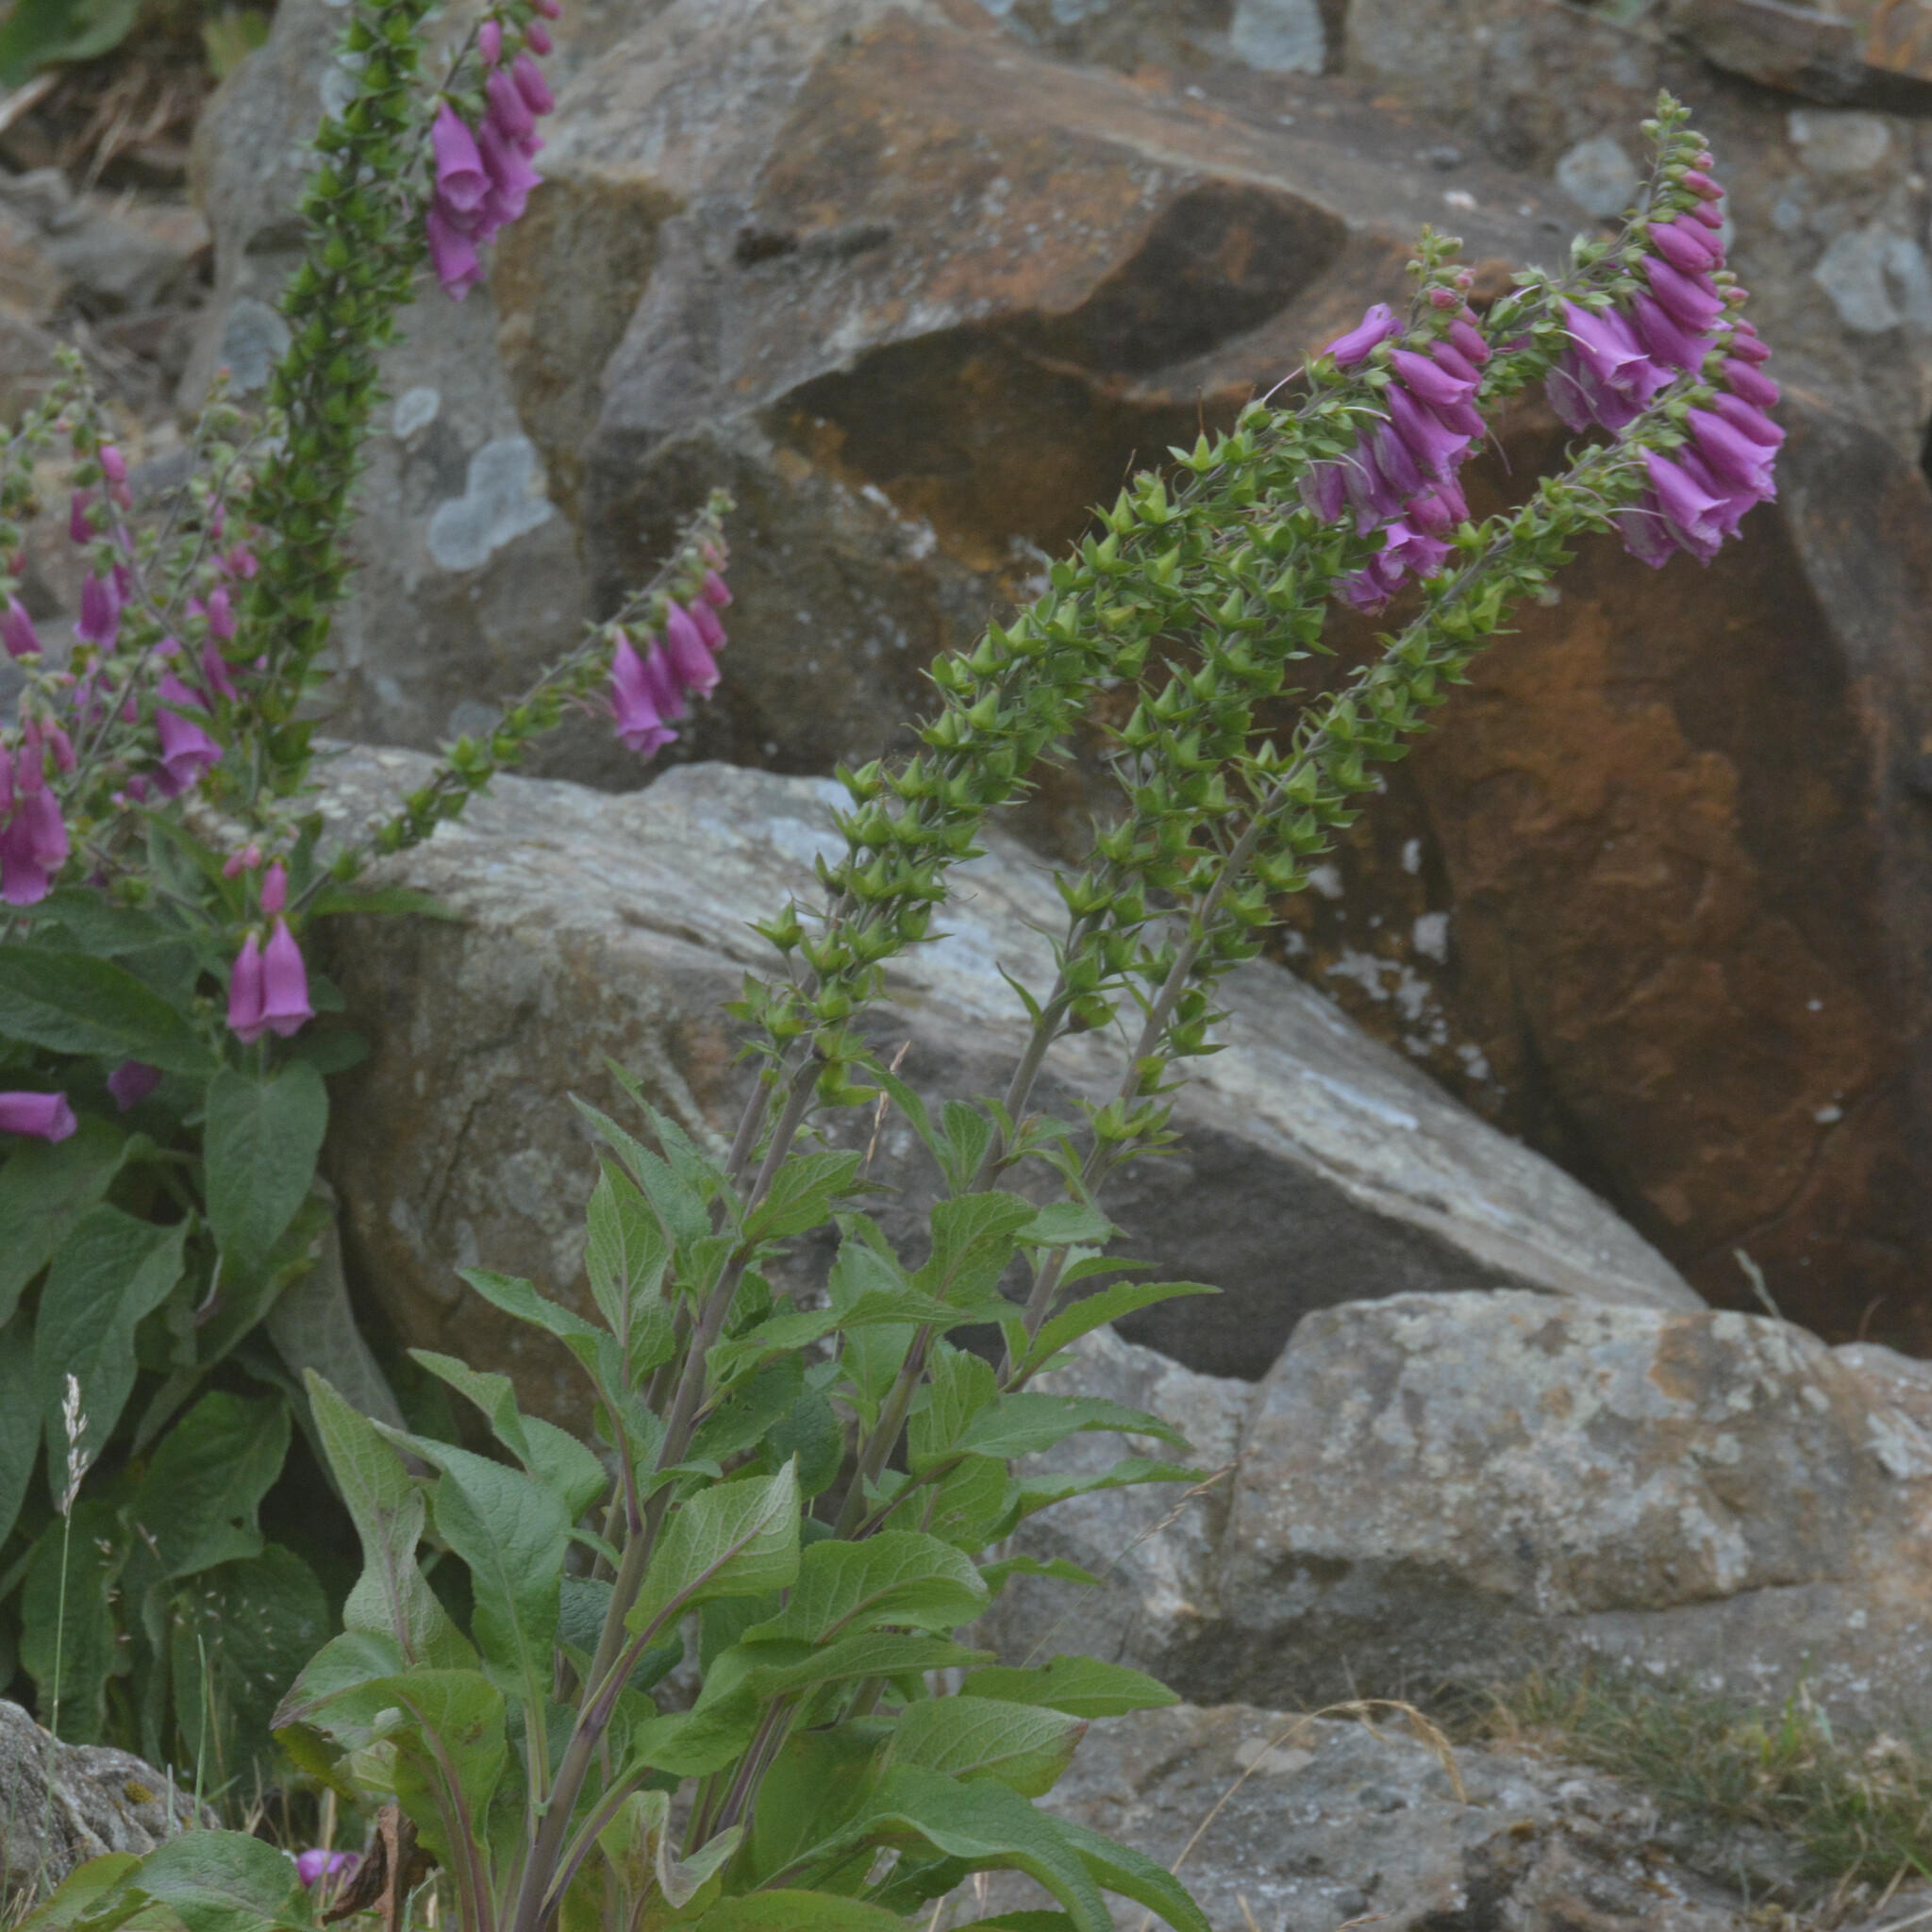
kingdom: Plantae
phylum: Tracheophyta
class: Magnoliopsida
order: Lamiales
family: Plantaginaceae
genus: Digitalis
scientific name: Digitalis purpurea
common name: Foxglove
